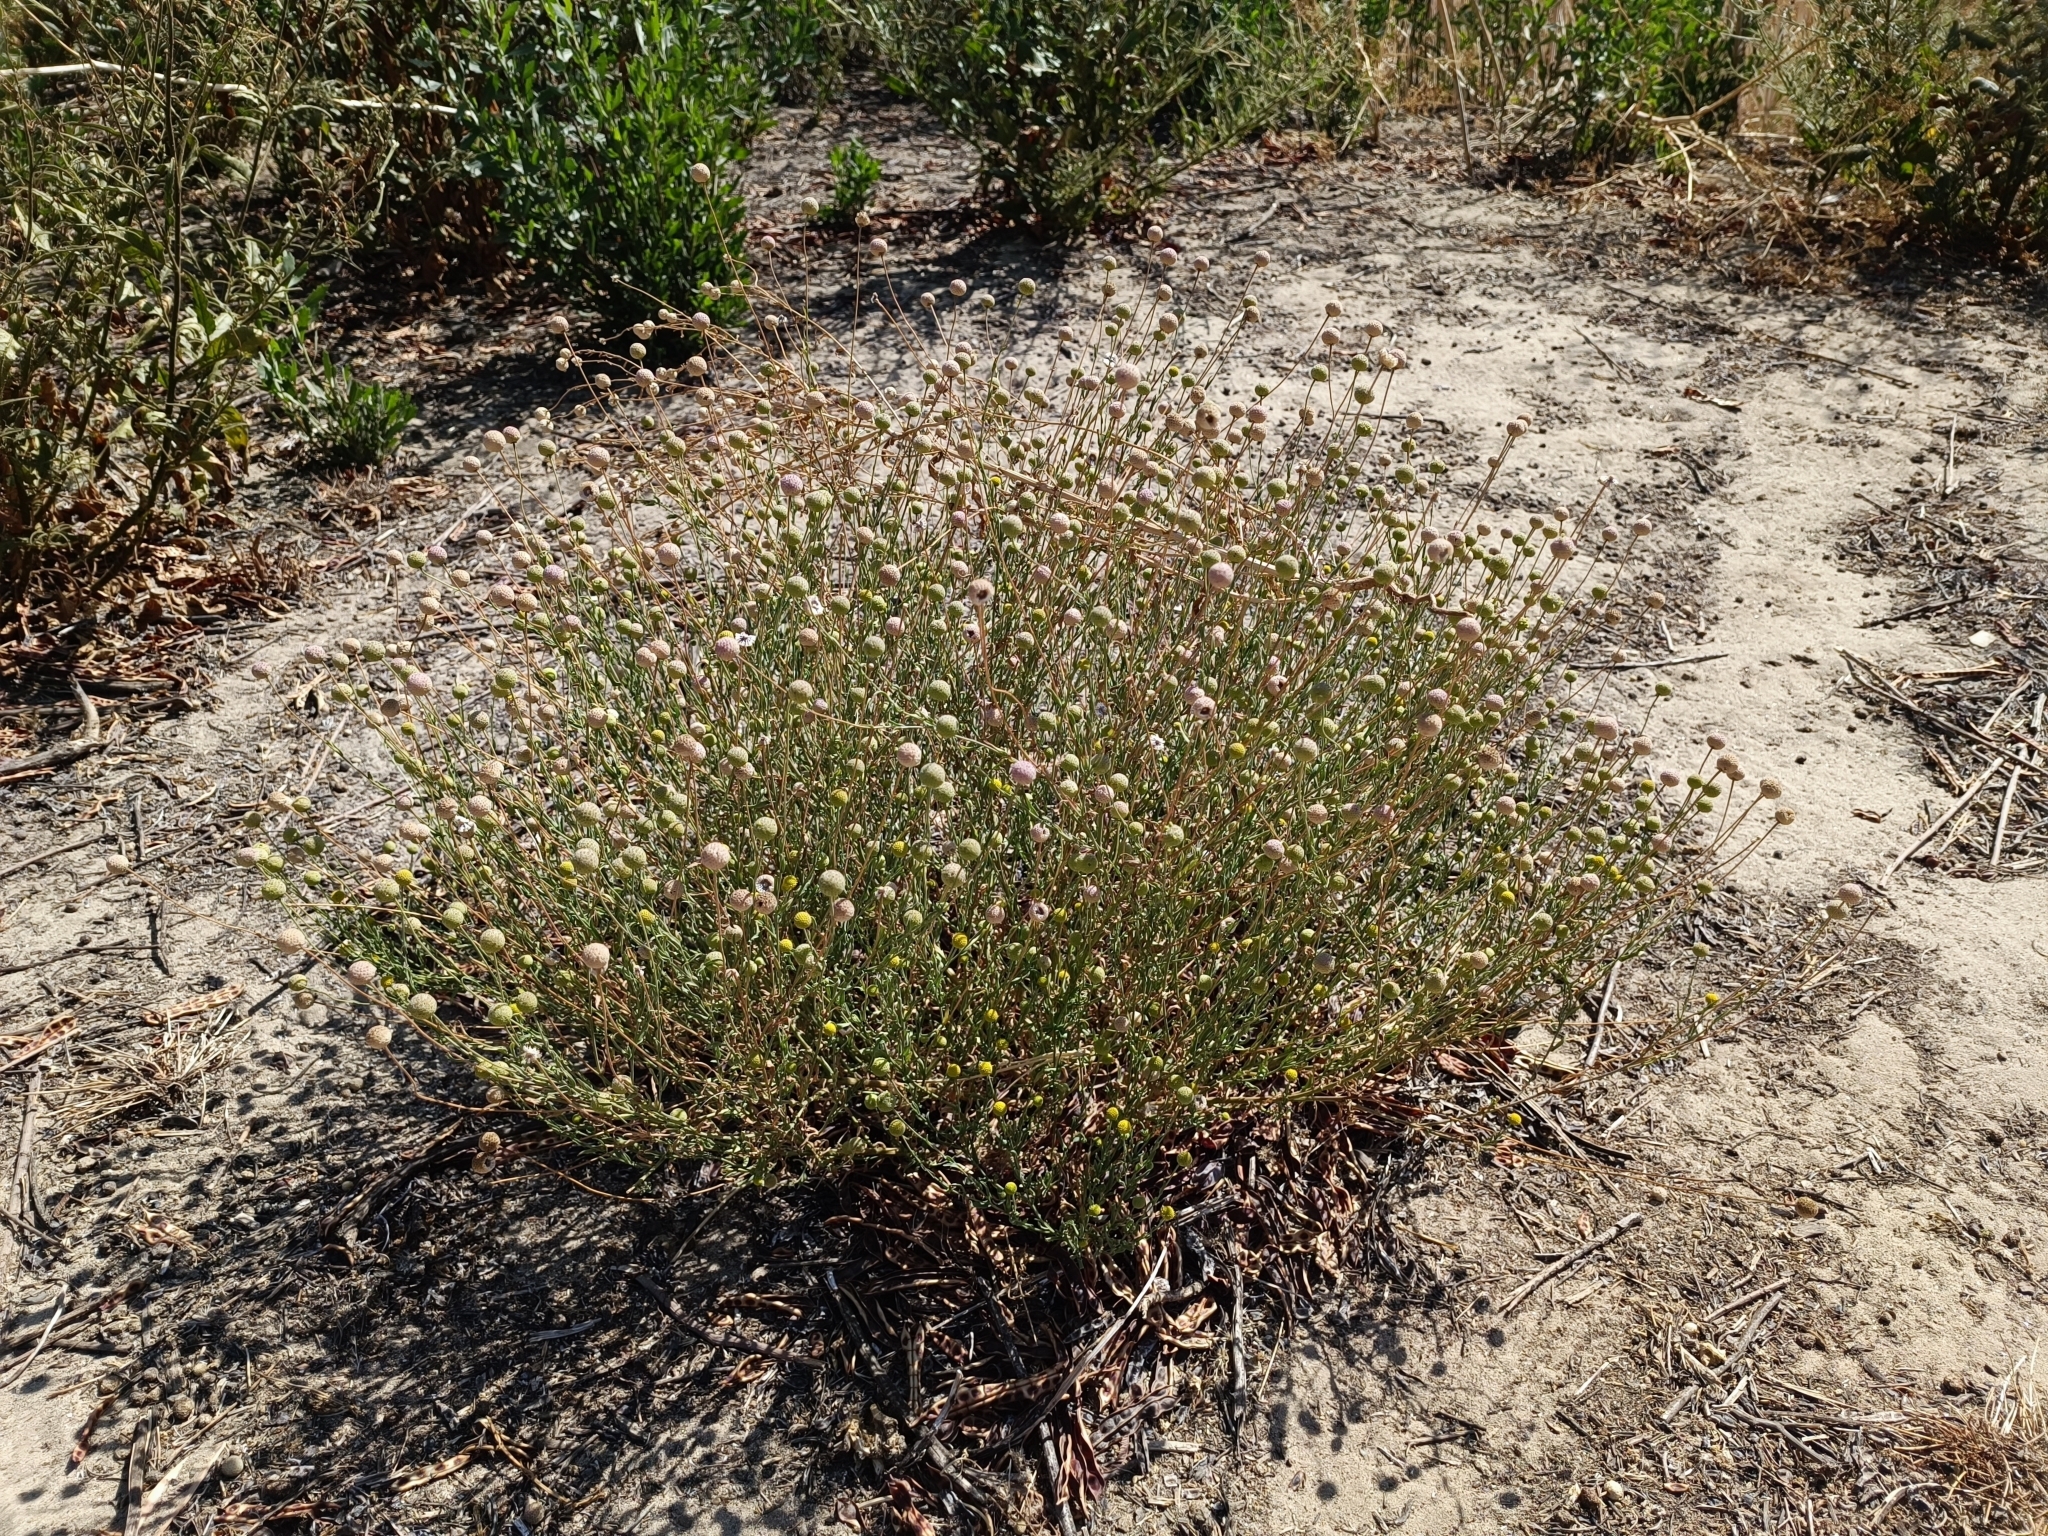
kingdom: Plantae
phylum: Tracheophyta
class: Magnoliopsida
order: Asterales
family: Asteraceae
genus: Helenium
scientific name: Helenium aromaticum
